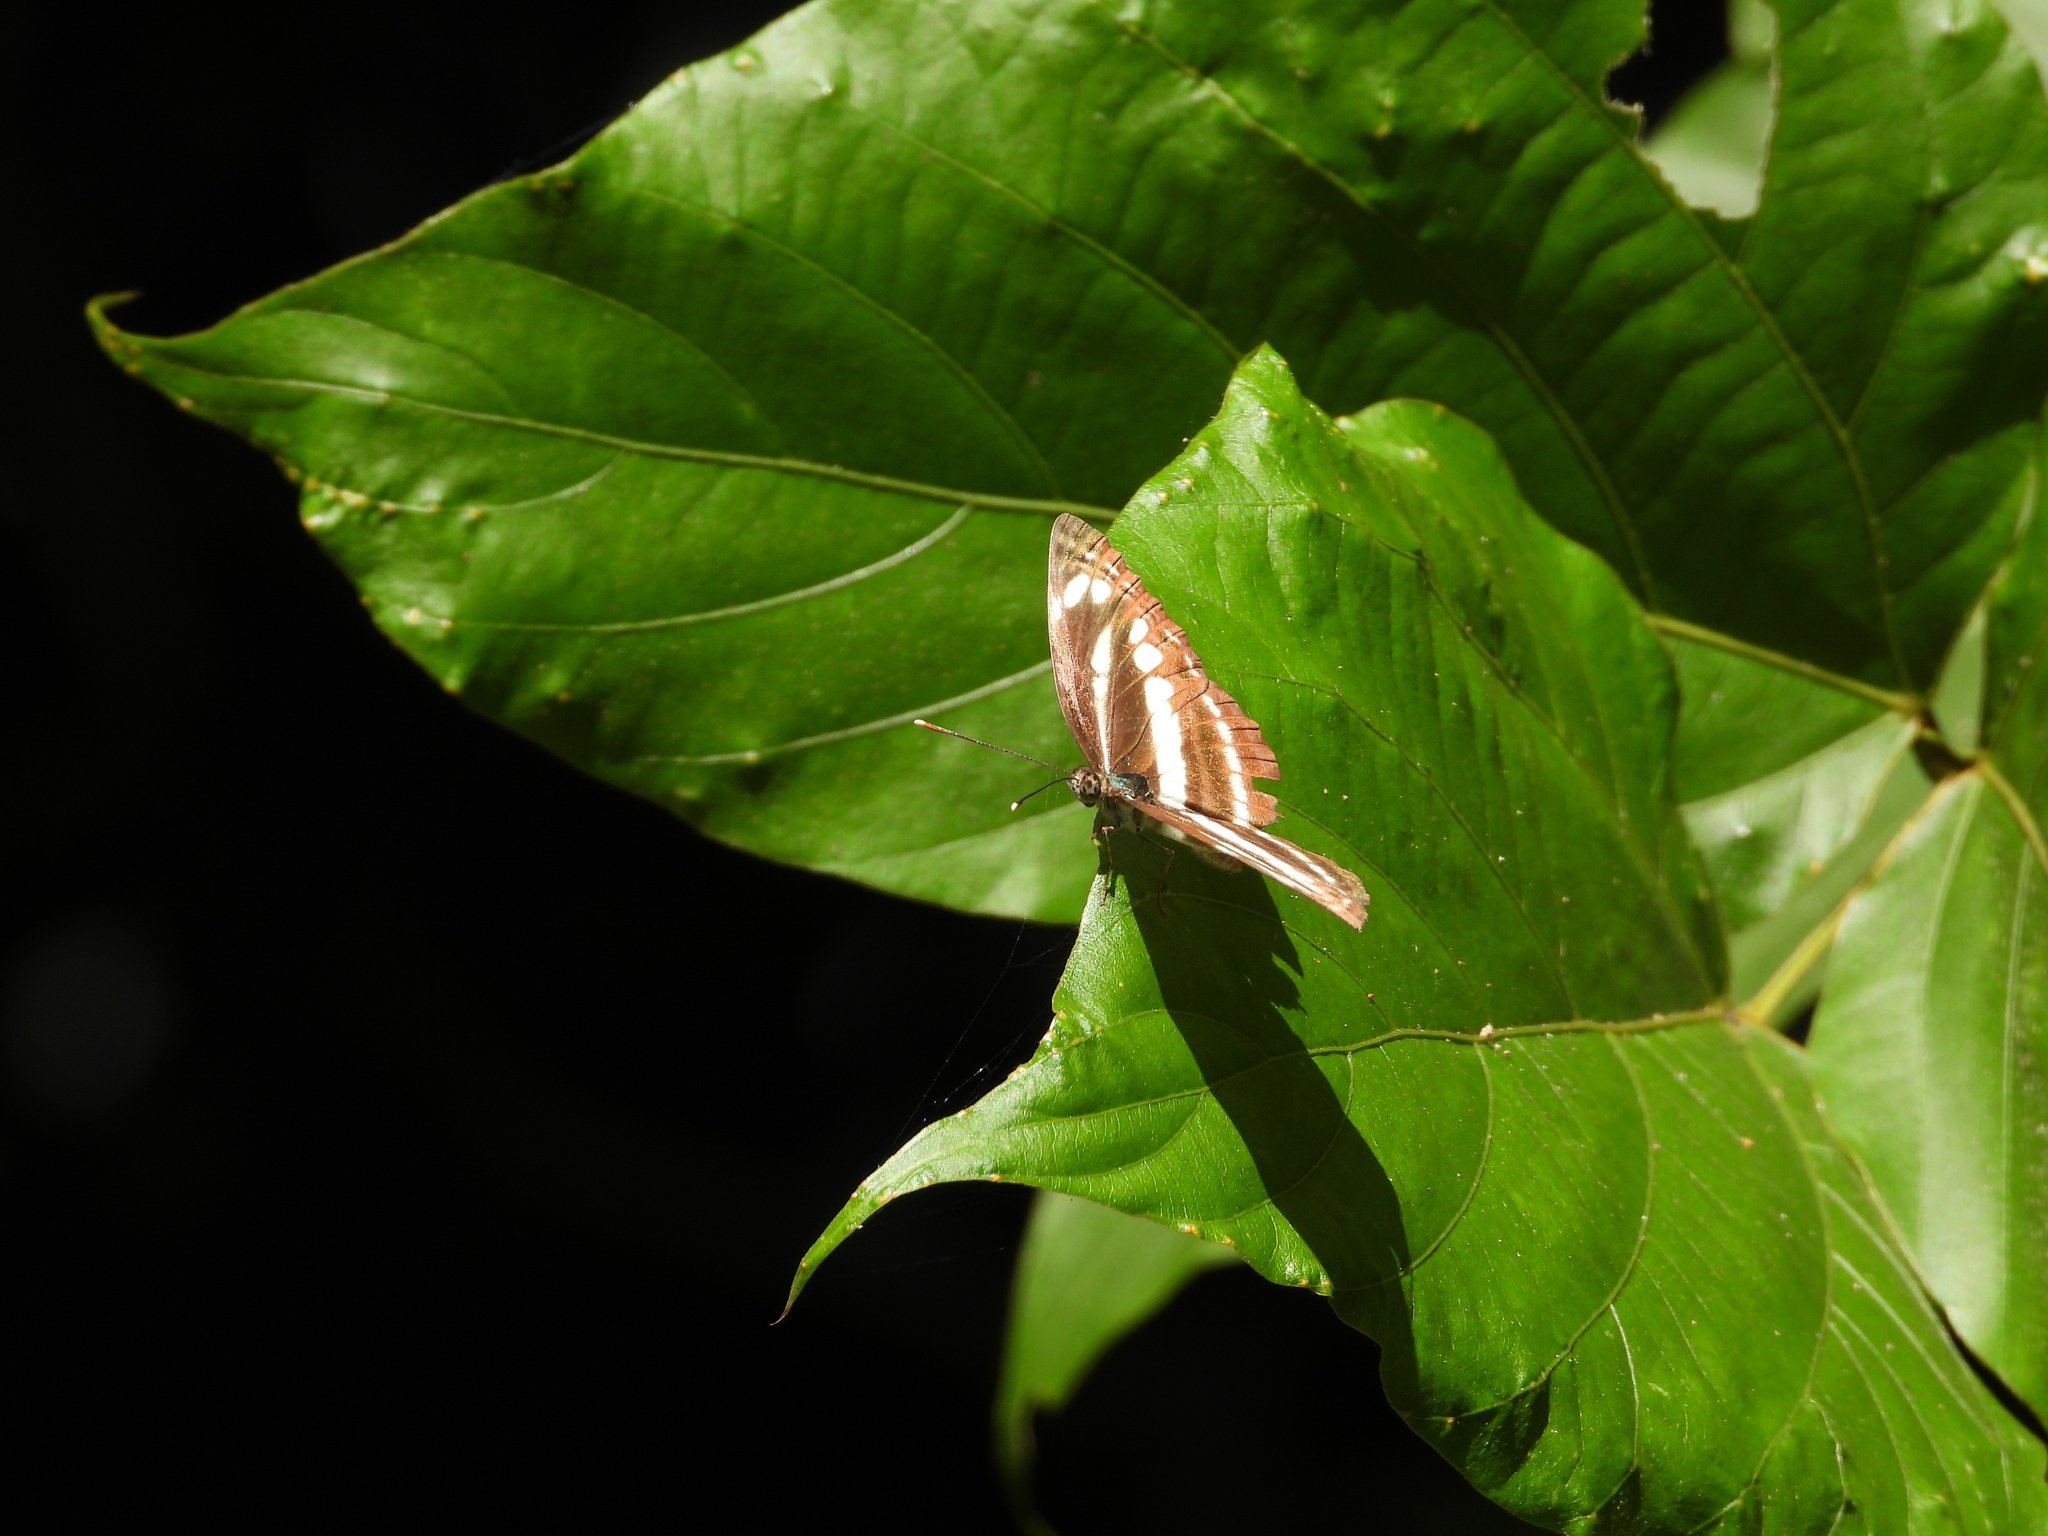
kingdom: Animalia
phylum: Arthropoda
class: Insecta
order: Lepidoptera
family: Nymphalidae
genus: Neptis
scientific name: Neptis clinia
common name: Southern sullied sailer
